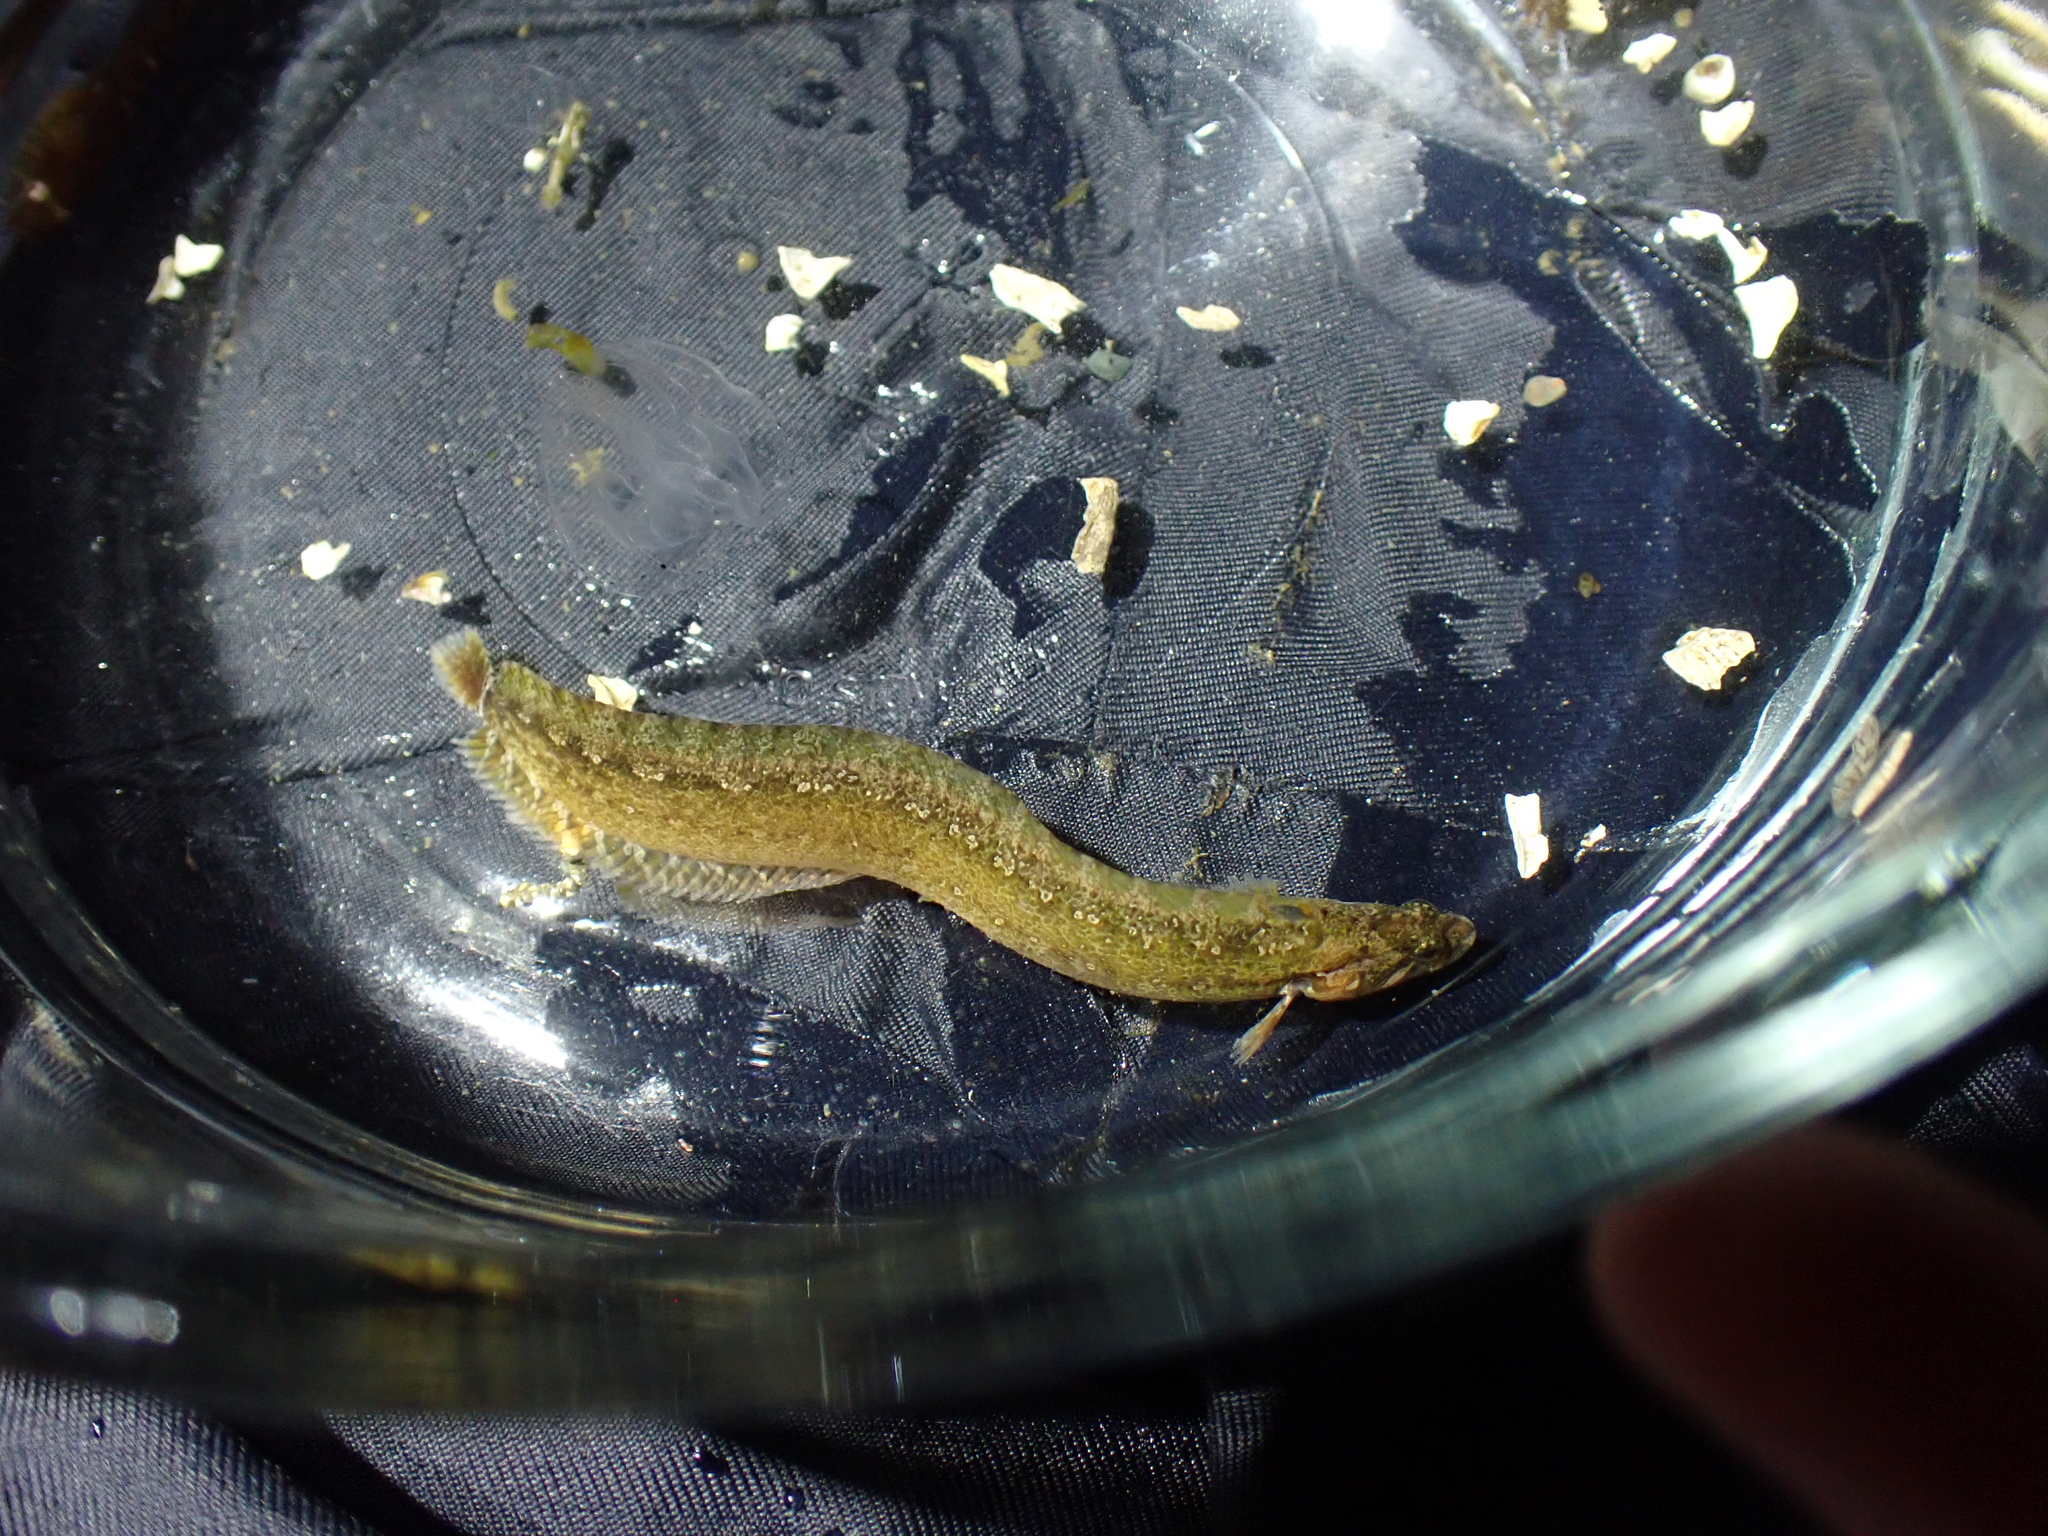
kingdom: Animalia
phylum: Chordata
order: Perciformes
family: Stichaeidae
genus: Anoplarchus
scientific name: Anoplarchus purpurescens
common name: High cockscomb
